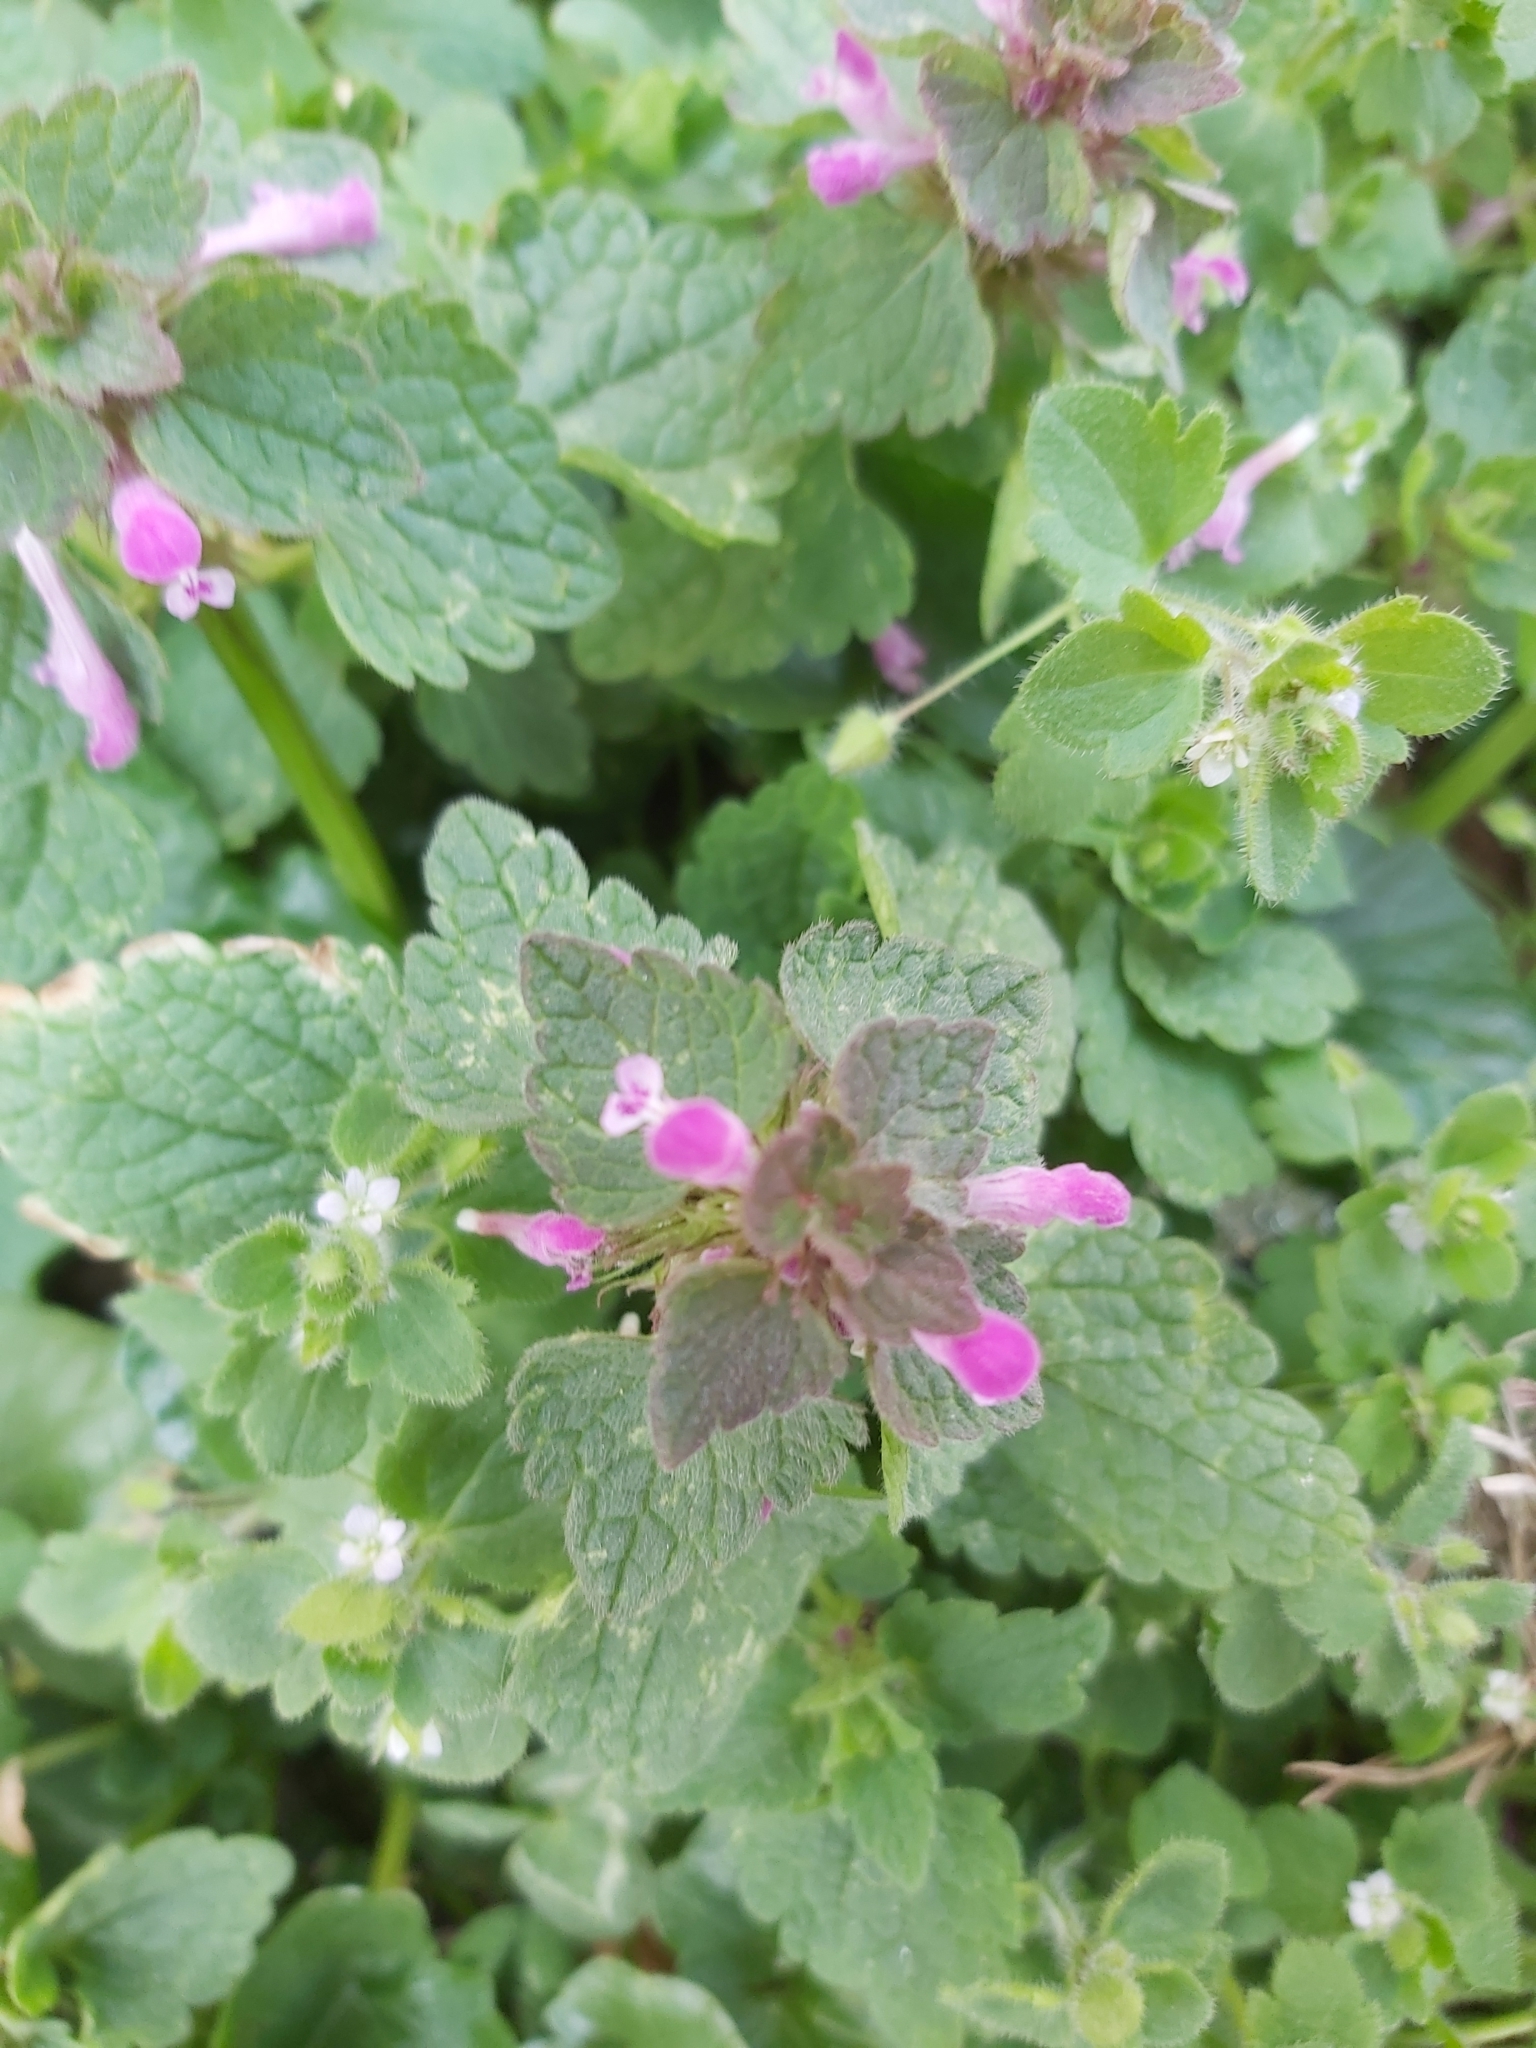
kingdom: Plantae
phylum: Tracheophyta
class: Magnoliopsida
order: Lamiales
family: Lamiaceae
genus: Lamium
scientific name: Lamium purpureum
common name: Red dead-nettle
